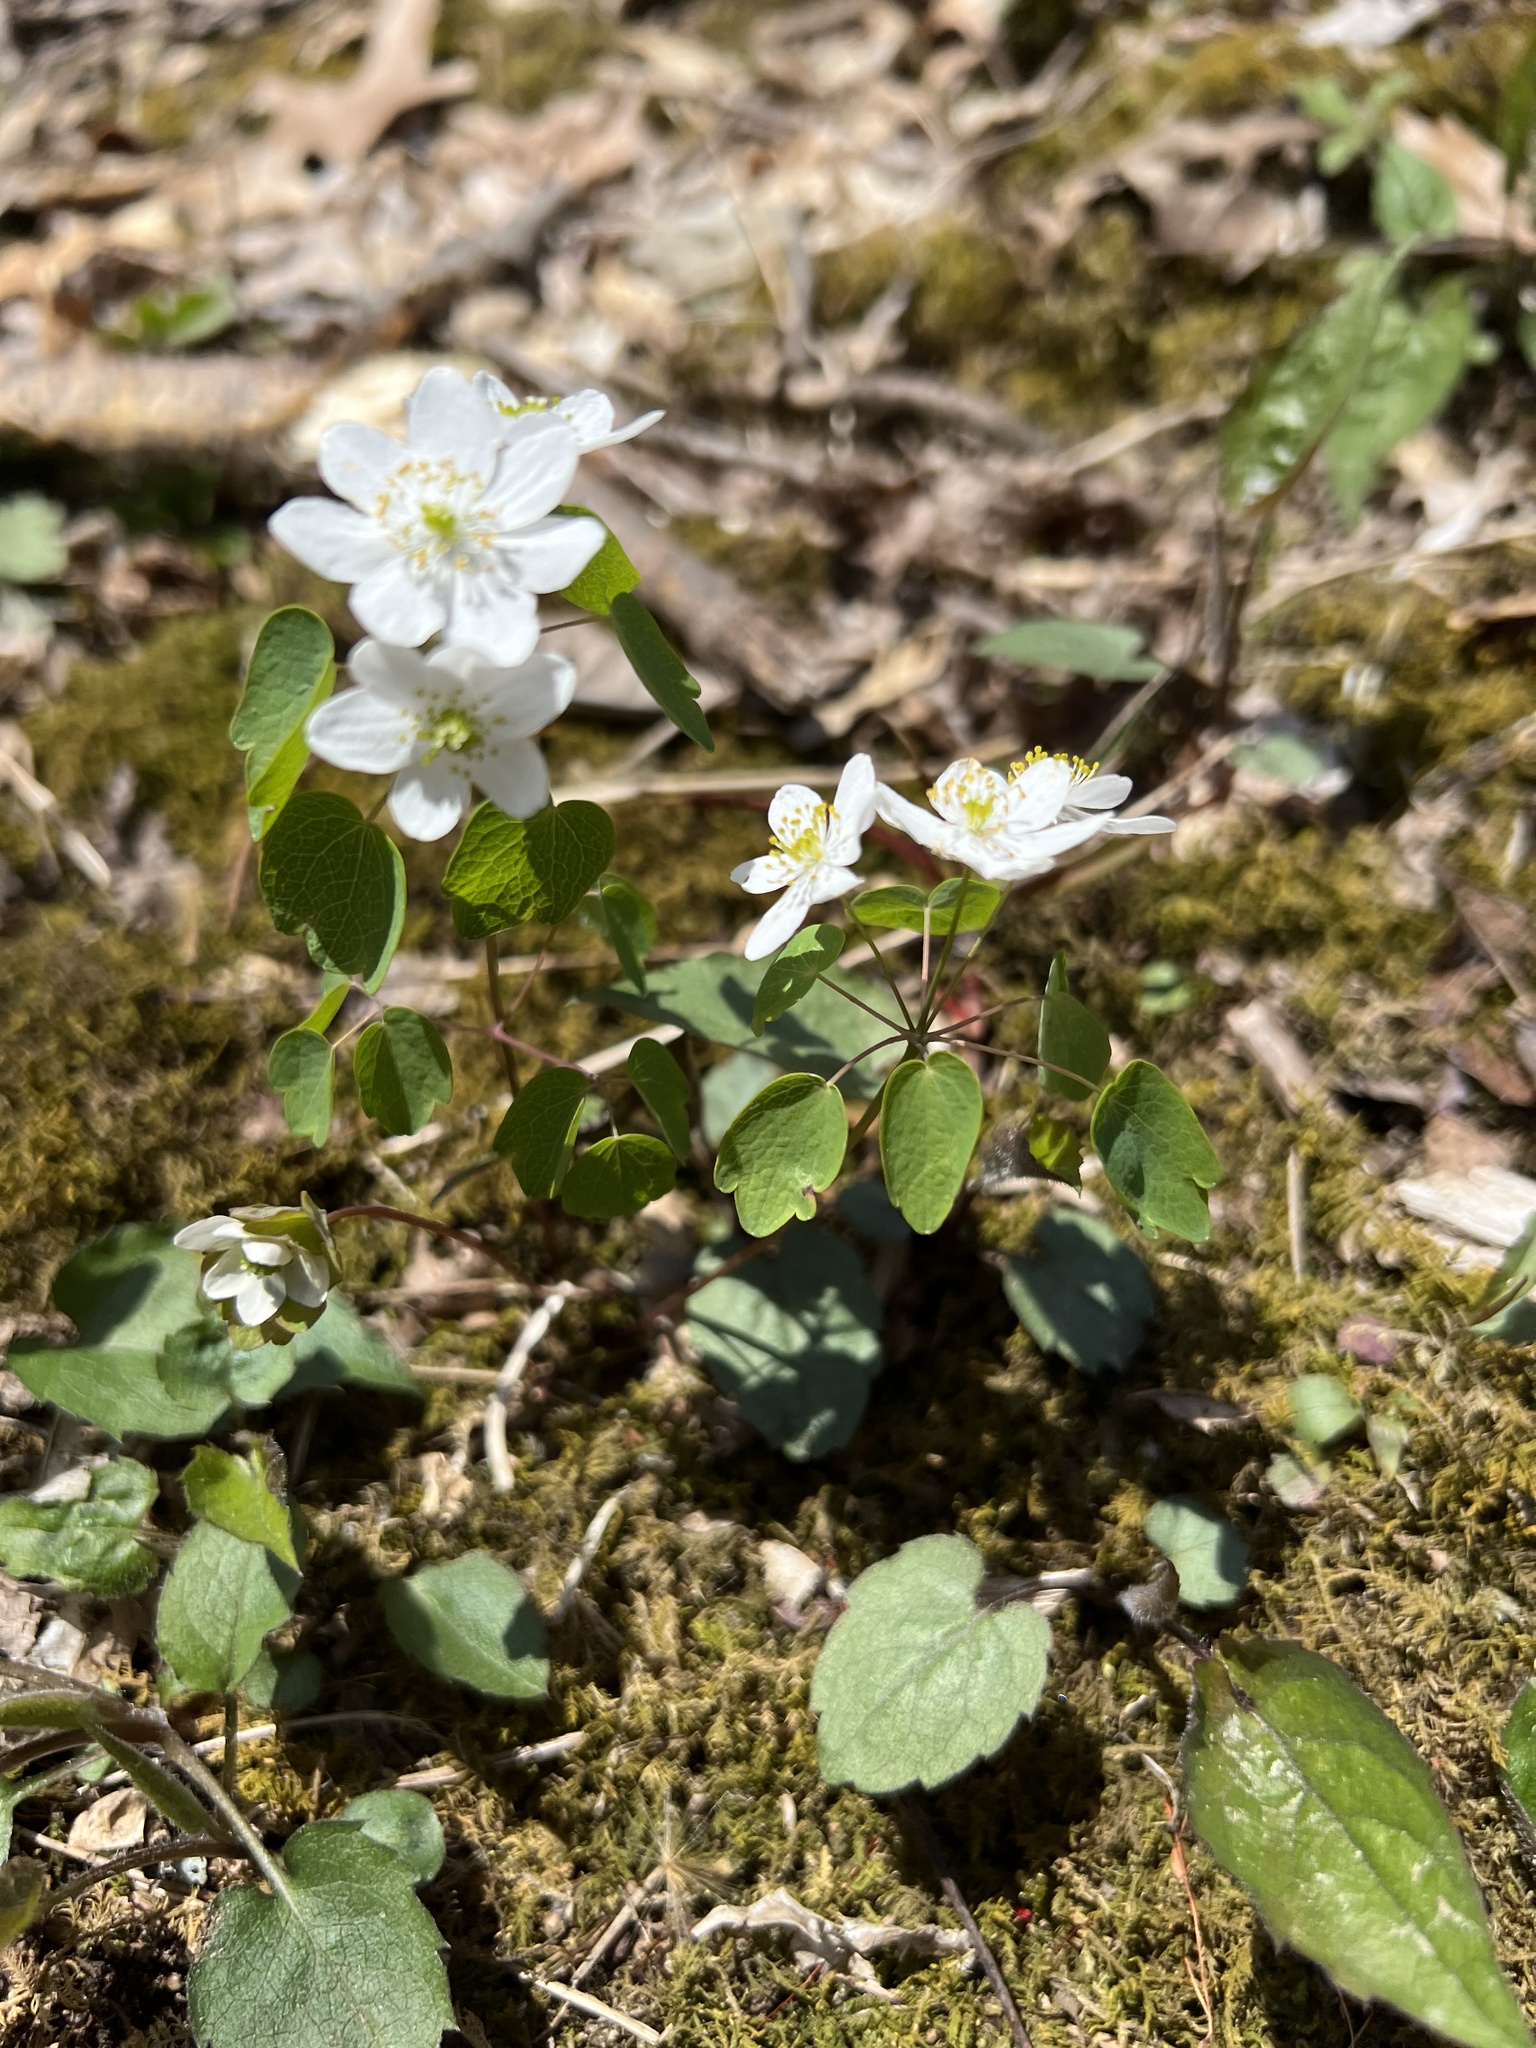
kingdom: Plantae
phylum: Tracheophyta
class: Magnoliopsida
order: Ranunculales
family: Ranunculaceae
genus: Thalictrum
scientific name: Thalictrum thalictroides
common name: Rue-anemone
